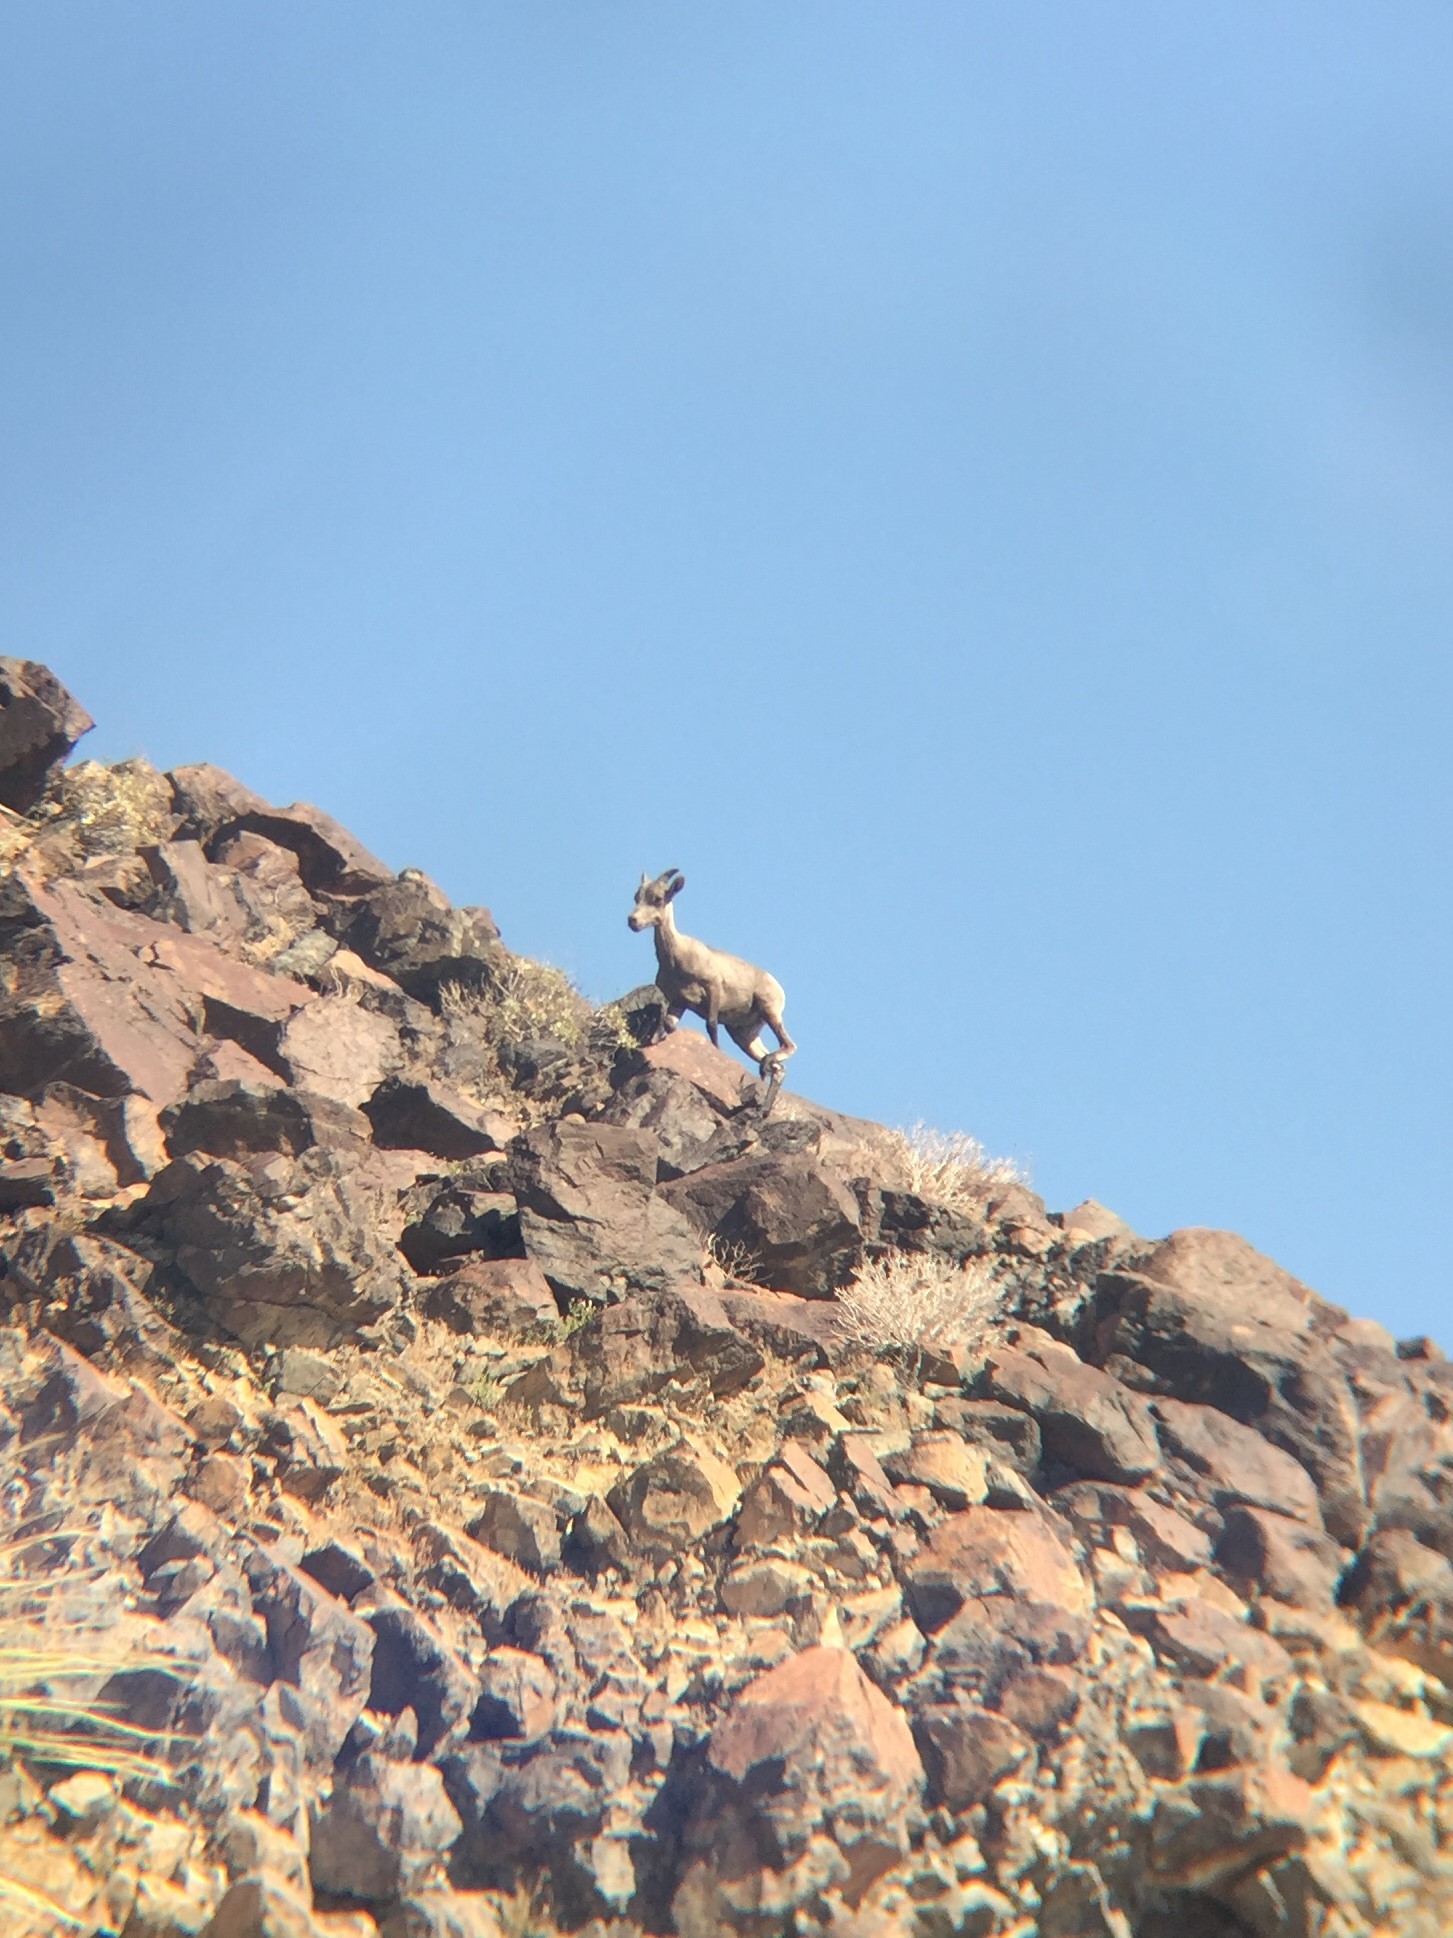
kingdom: Animalia
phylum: Chordata
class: Mammalia
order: Artiodactyla
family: Bovidae
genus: Ovis
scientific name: Ovis canadensis
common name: Bighorn sheep
